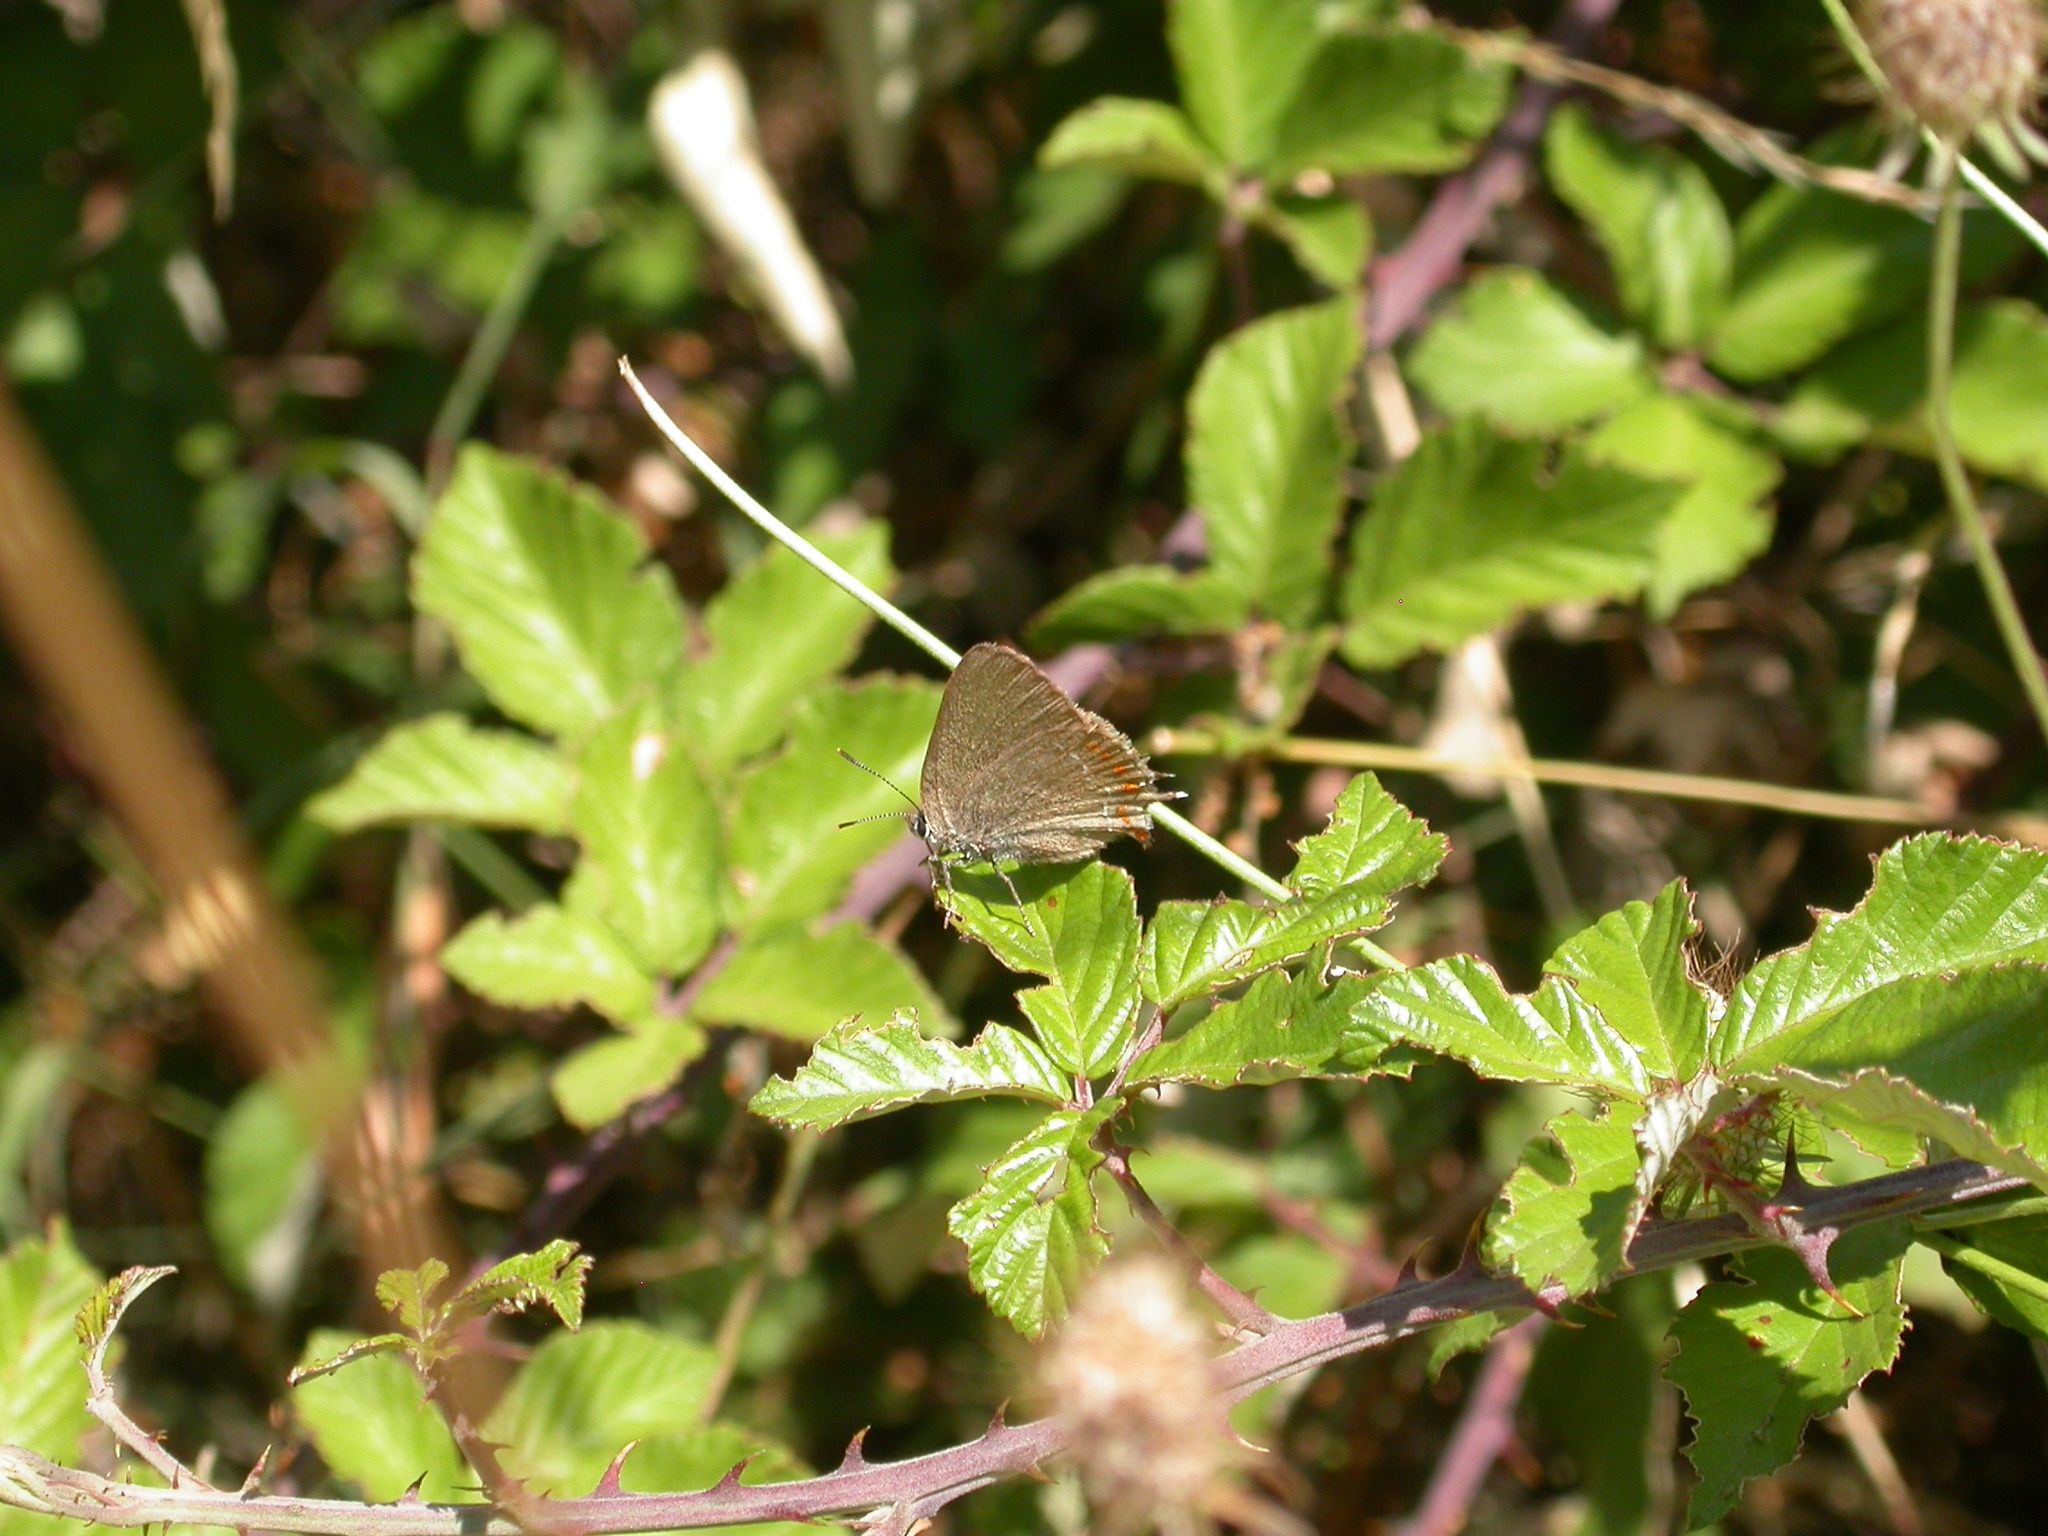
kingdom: Animalia
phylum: Arthropoda
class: Insecta
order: Lepidoptera
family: Lycaenidae
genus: Fixsenia
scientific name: Fixsenia esculi
